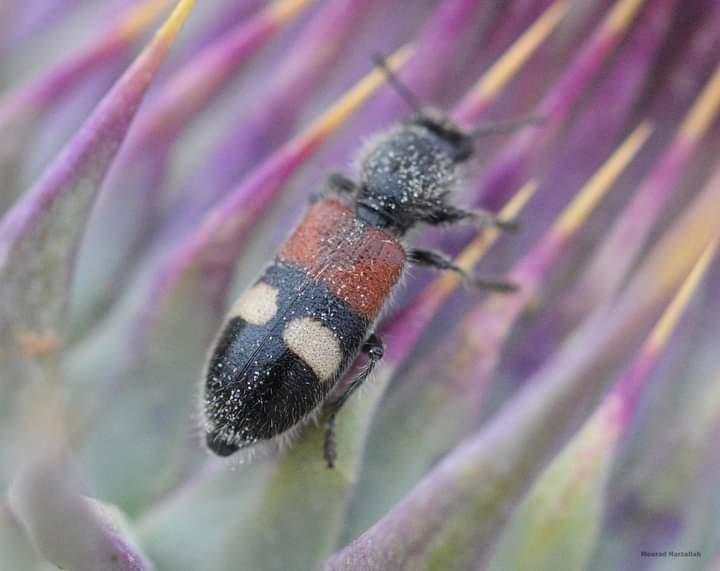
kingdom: Animalia
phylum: Arthropoda
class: Insecta
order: Coleoptera
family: Cleridae
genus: Tilloidea
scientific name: Tilloidea transversalis
